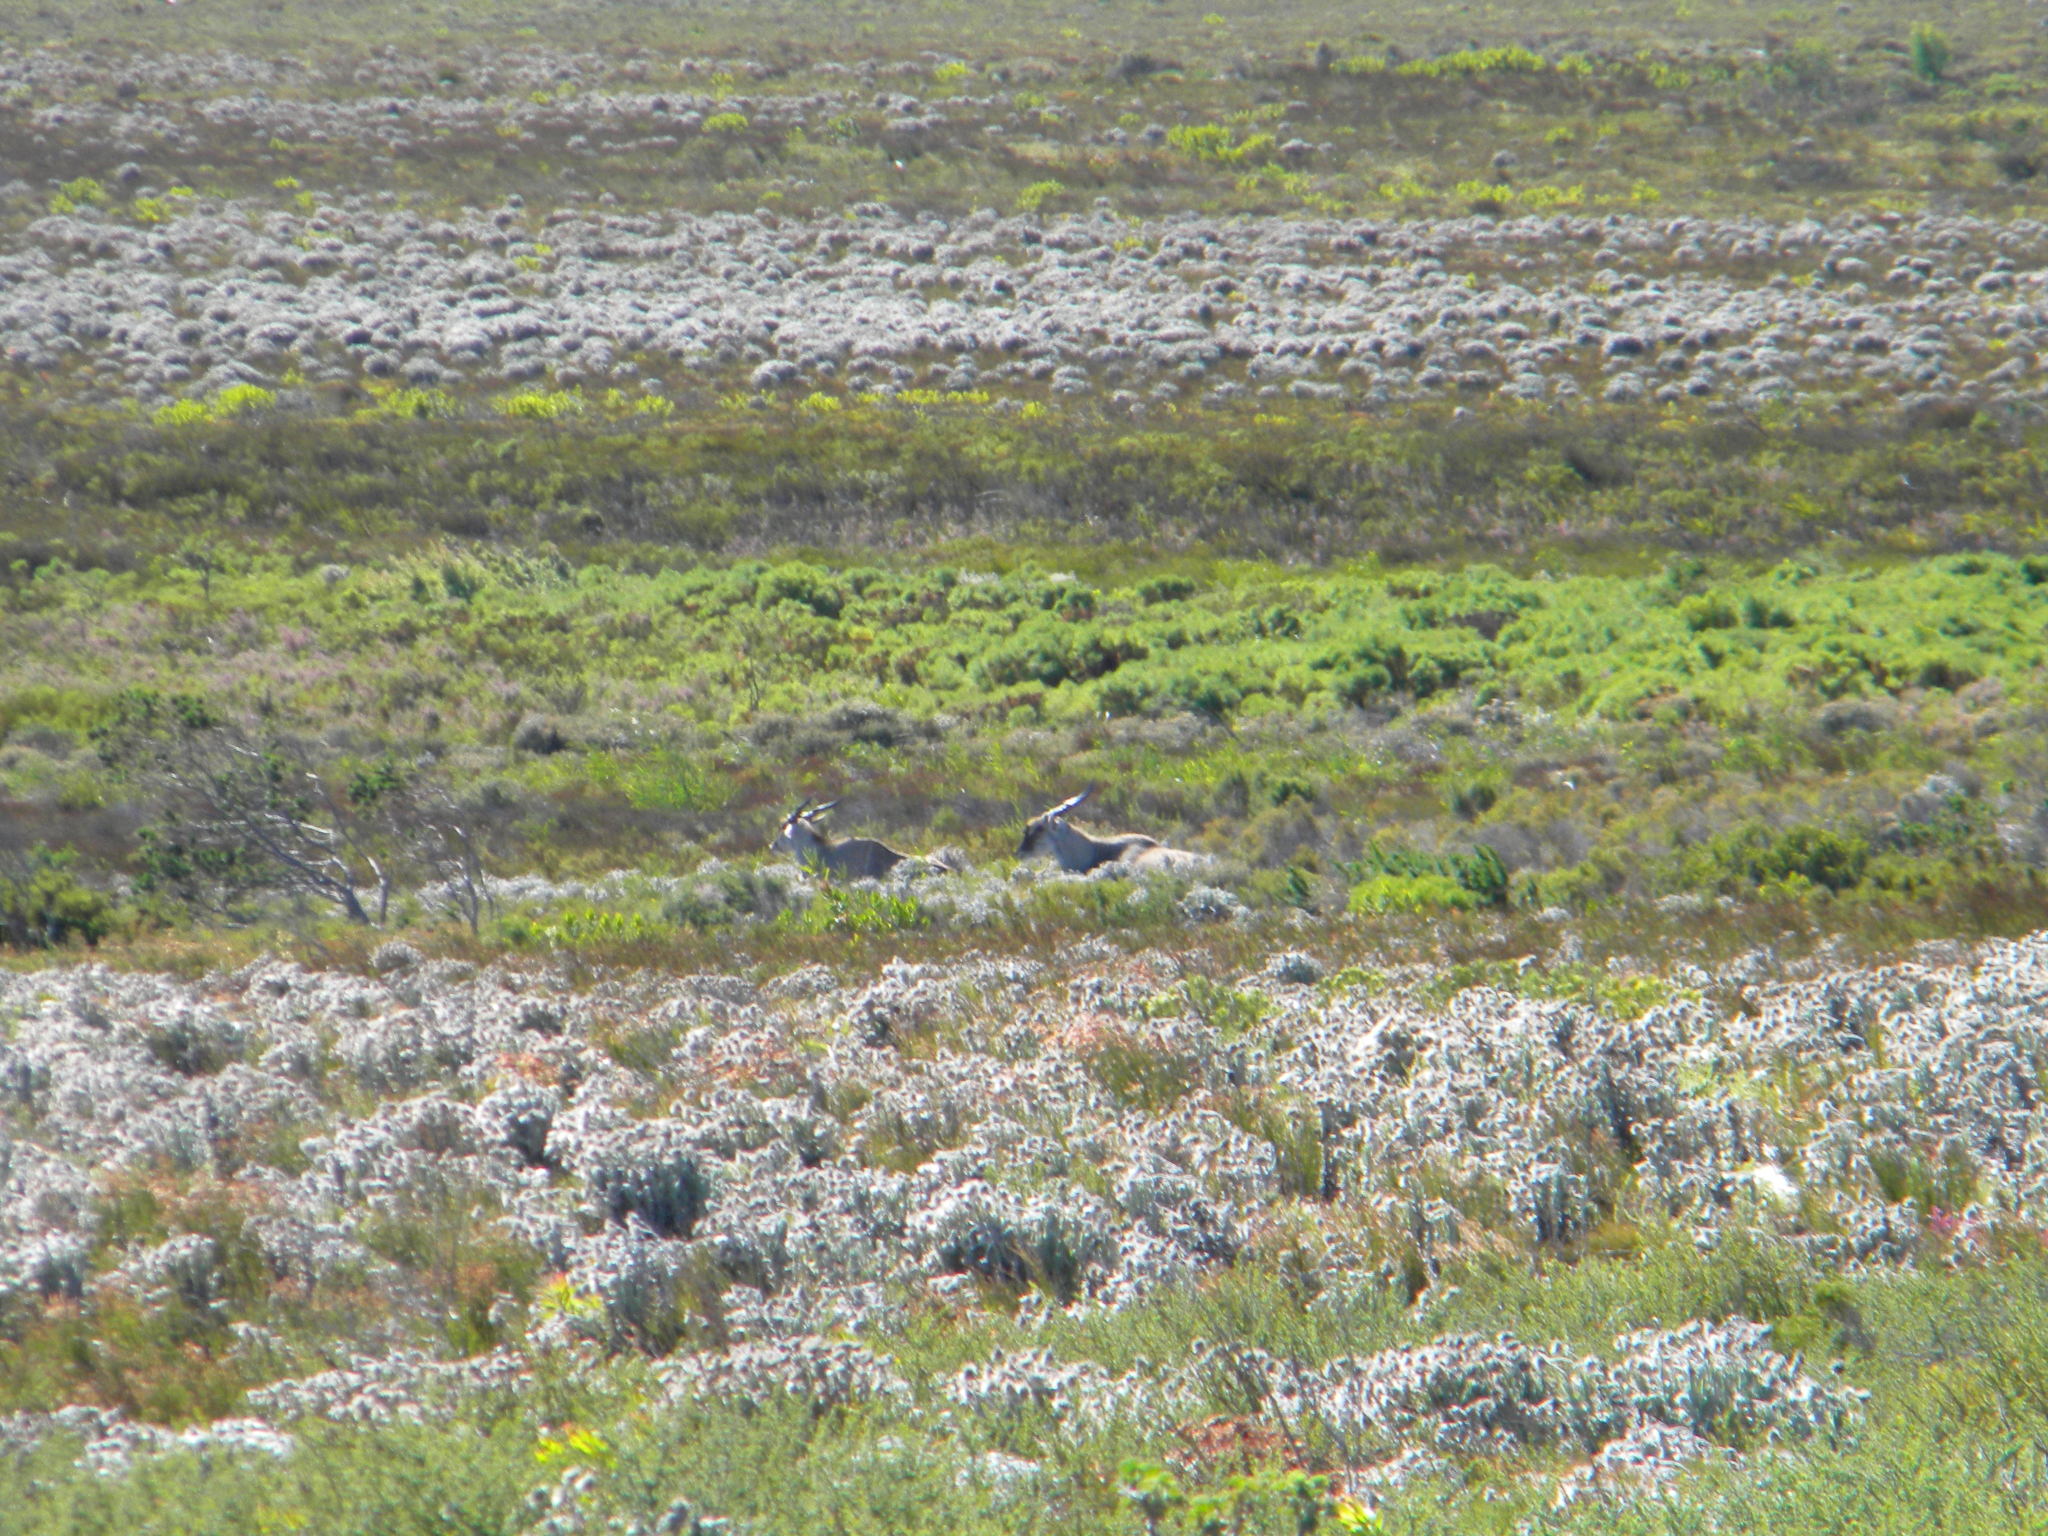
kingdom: Animalia
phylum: Chordata
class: Mammalia
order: Artiodactyla
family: Bovidae
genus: Taurotragus
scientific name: Taurotragus oryx
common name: Common eland
